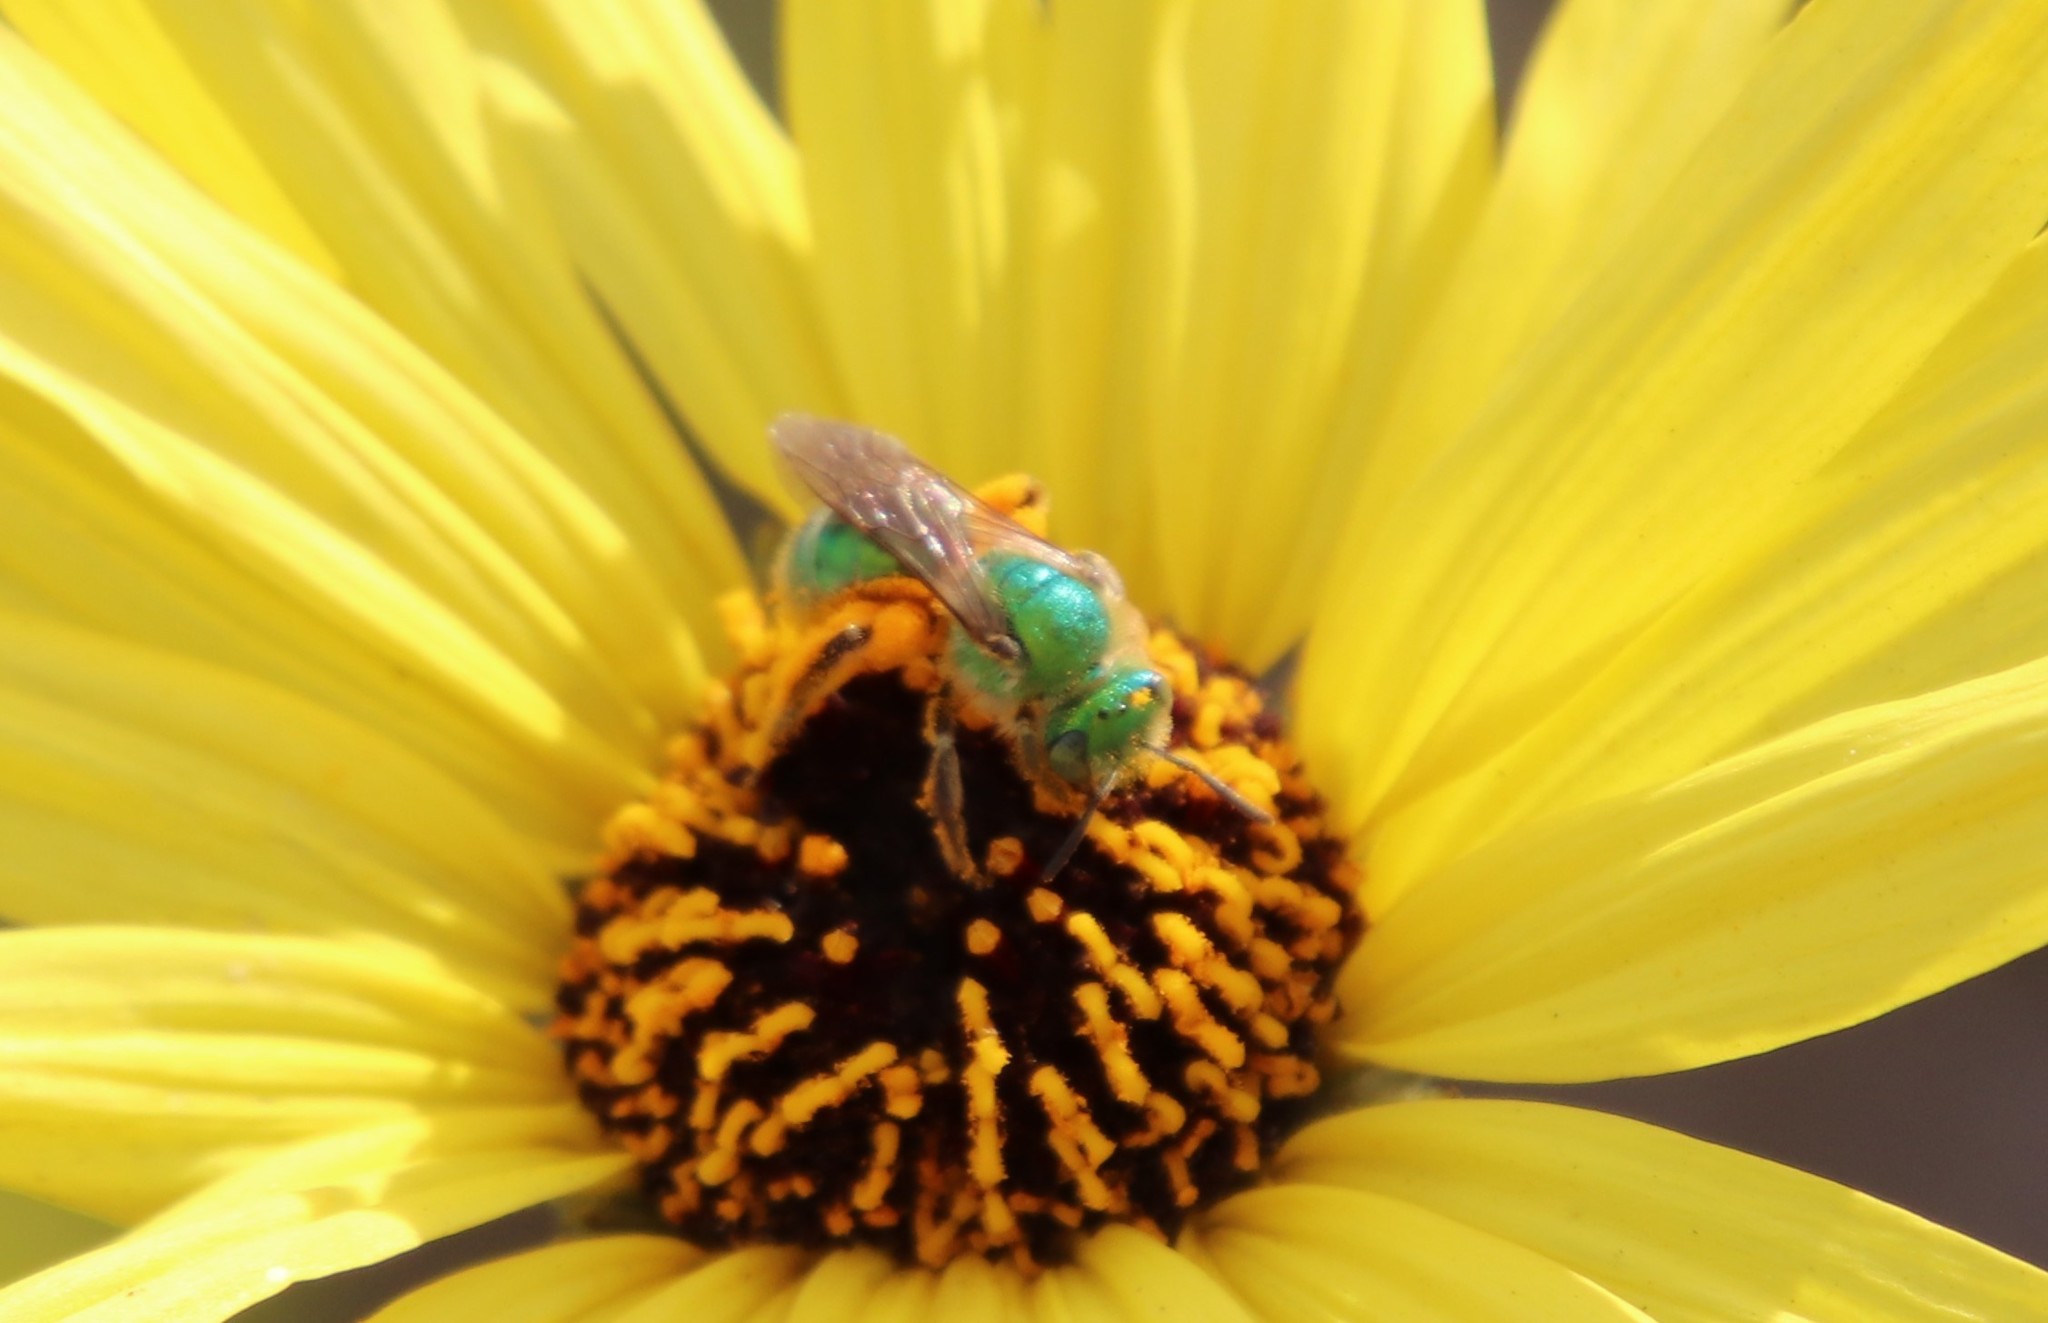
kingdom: Animalia
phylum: Arthropoda
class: Insecta
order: Hymenoptera
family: Halictidae
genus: Agapostemon
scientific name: Agapostemon texanus
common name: Texas striped sweat bee
